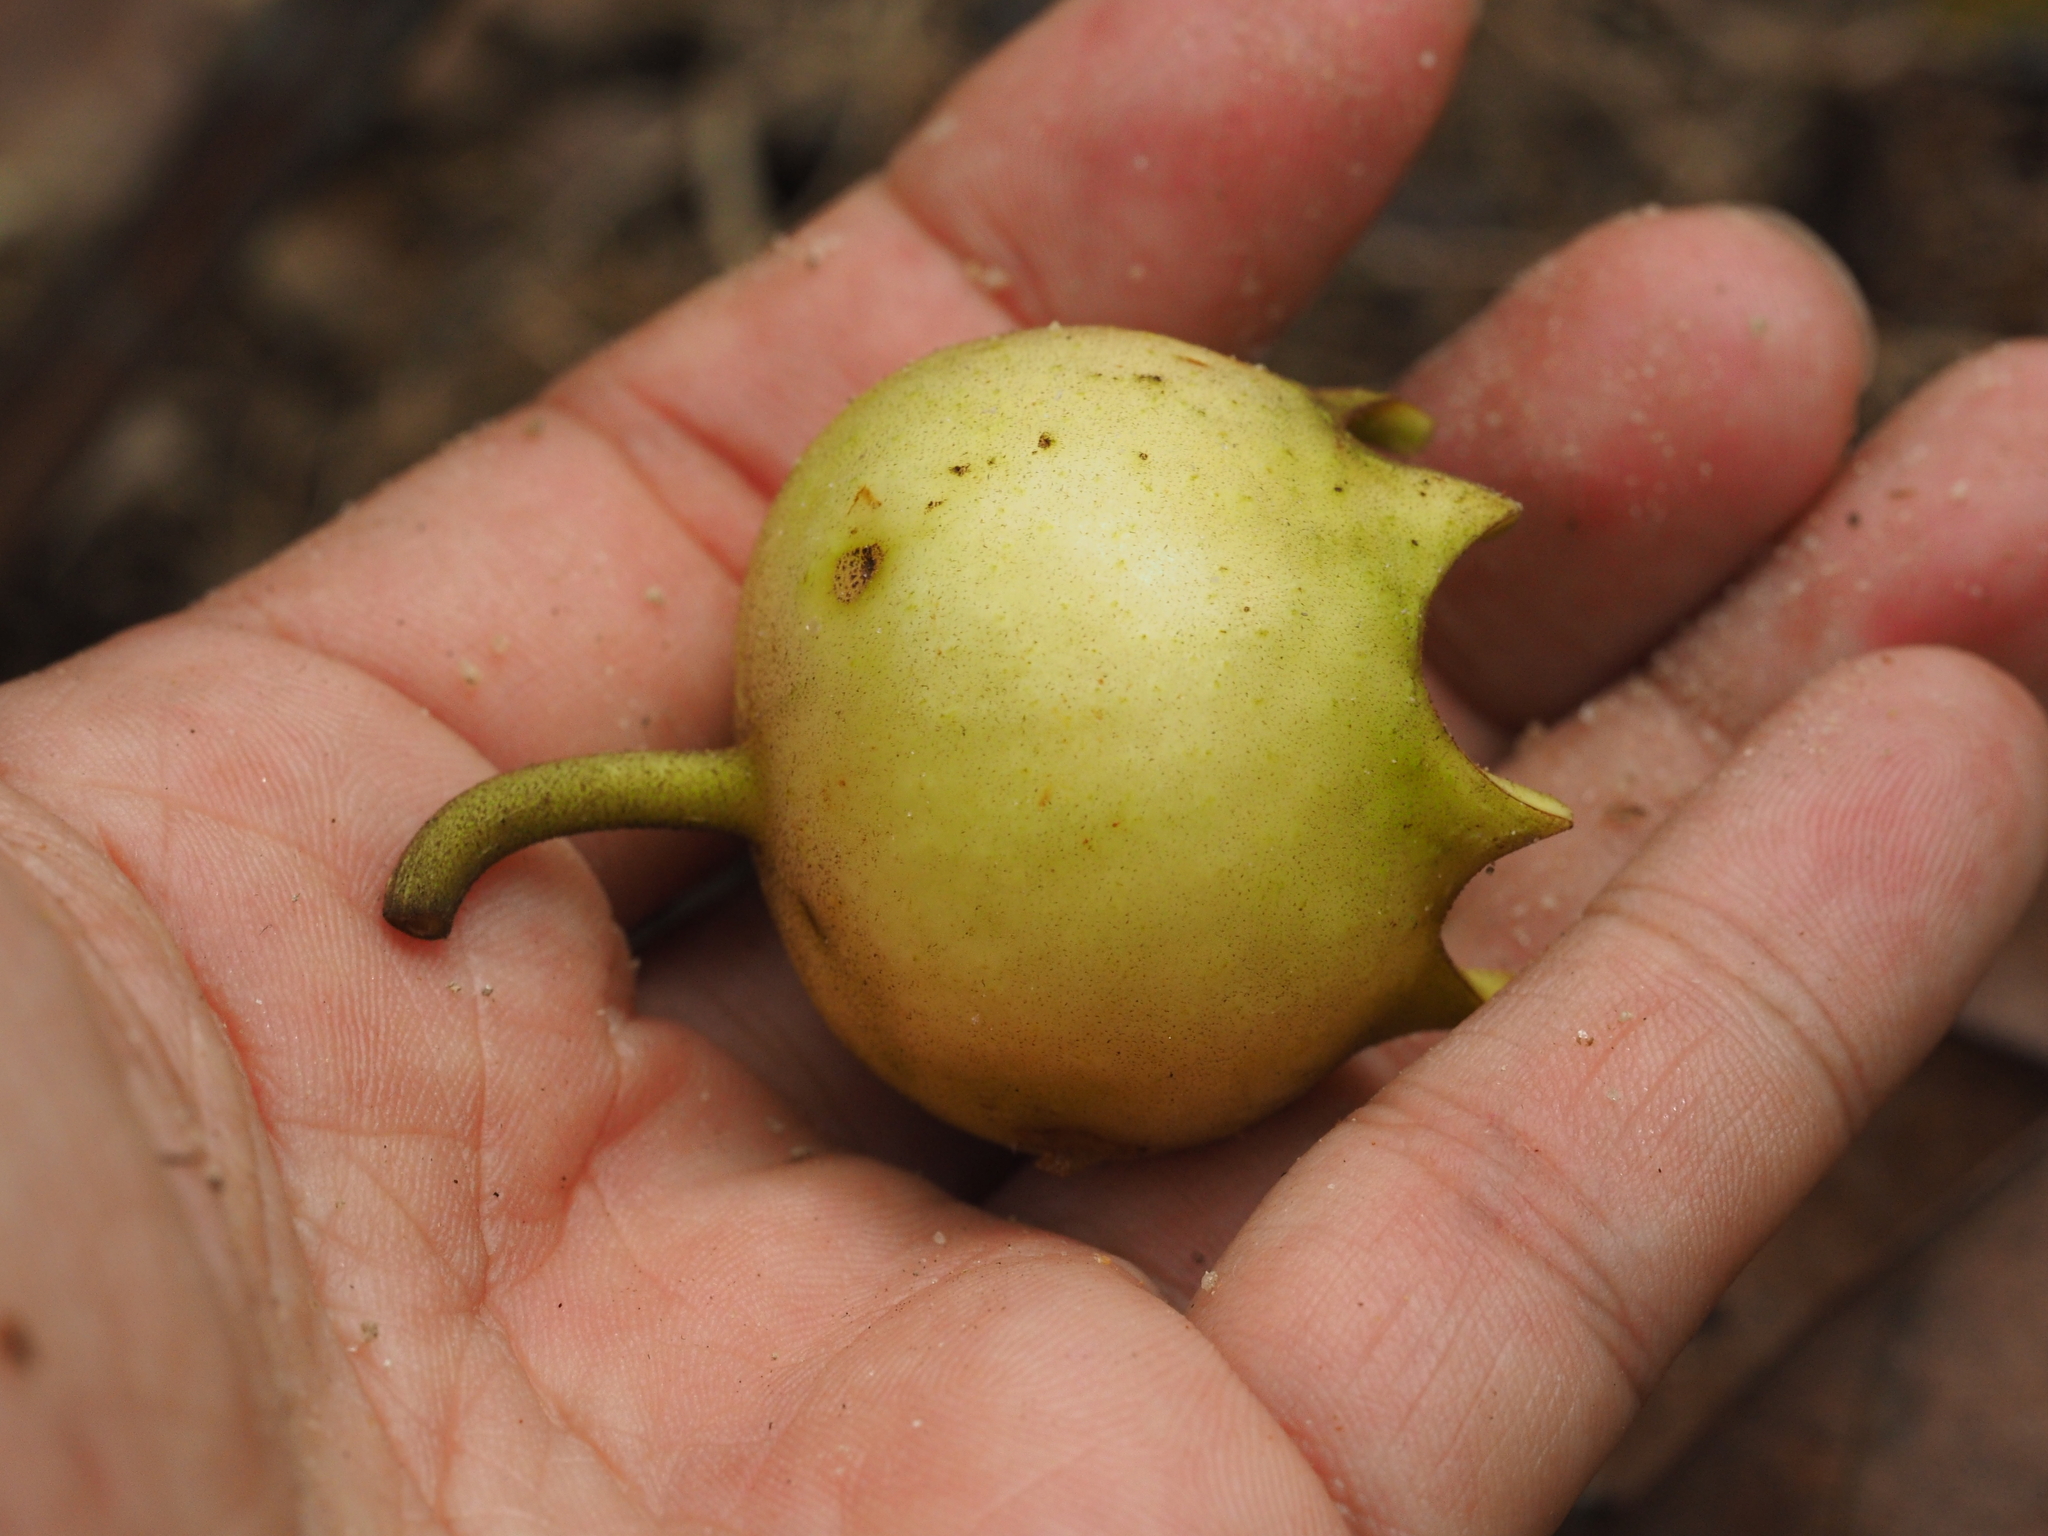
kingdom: Plantae
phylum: Tracheophyta
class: Magnoliopsida
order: Myrtales
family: Melastomataceae
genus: Bellucia
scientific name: Bellucia pentamera
